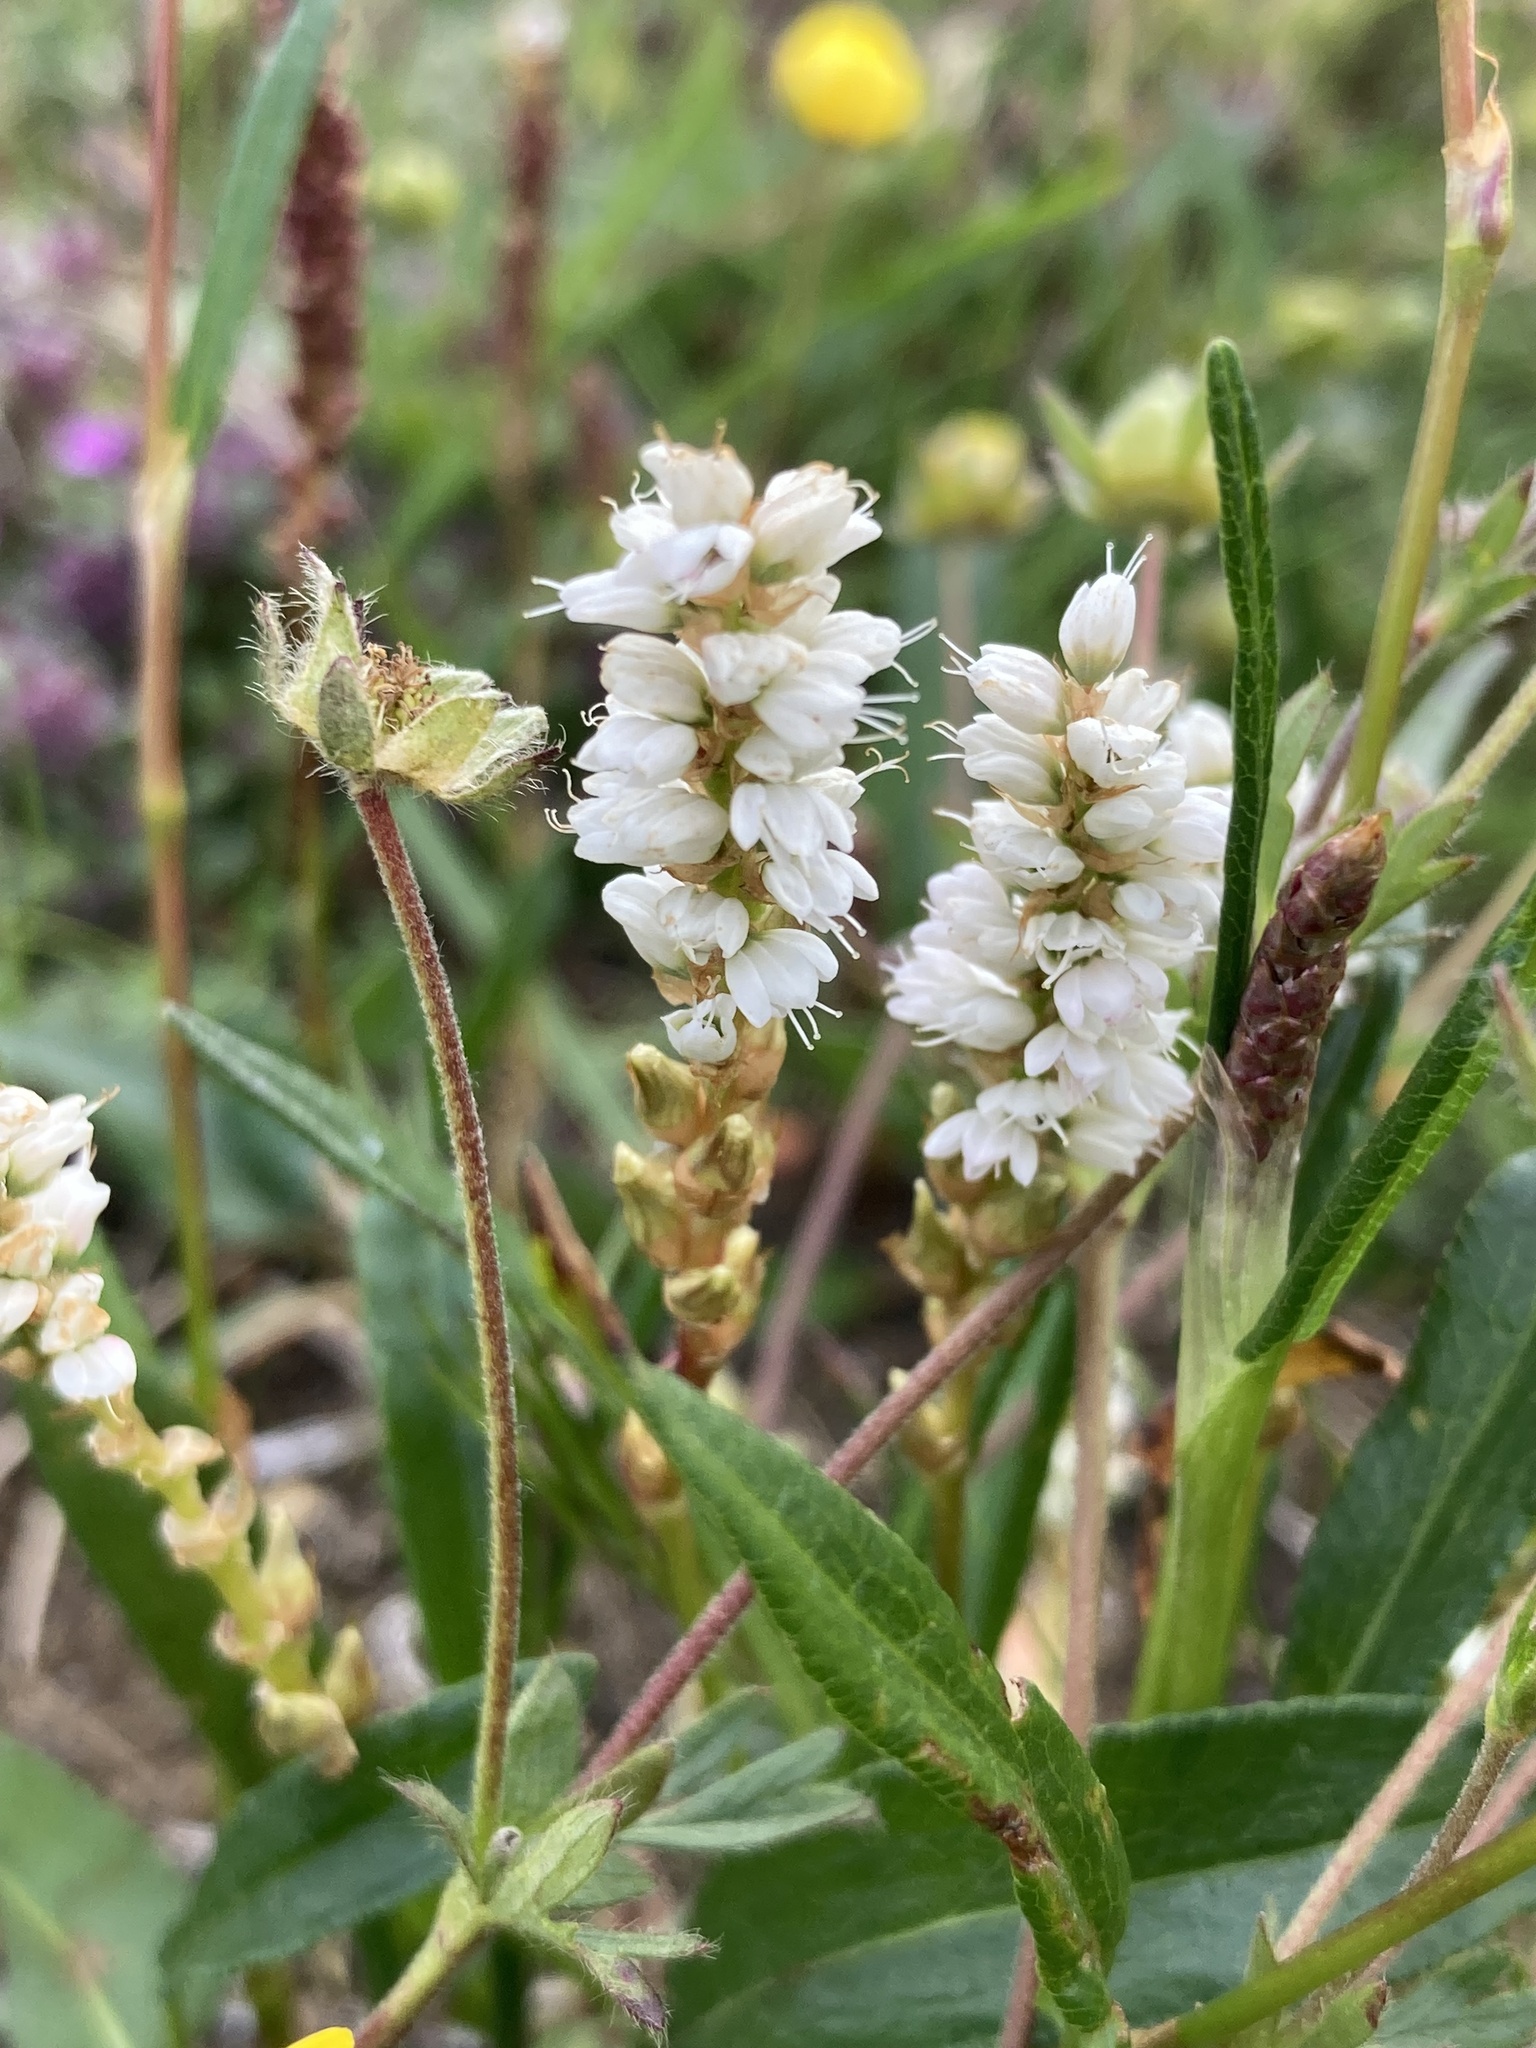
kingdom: Plantae
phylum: Tracheophyta
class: Magnoliopsida
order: Caryophyllales
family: Polygonaceae
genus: Bistorta
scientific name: Bistorta vivipara
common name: Alpine bistort
